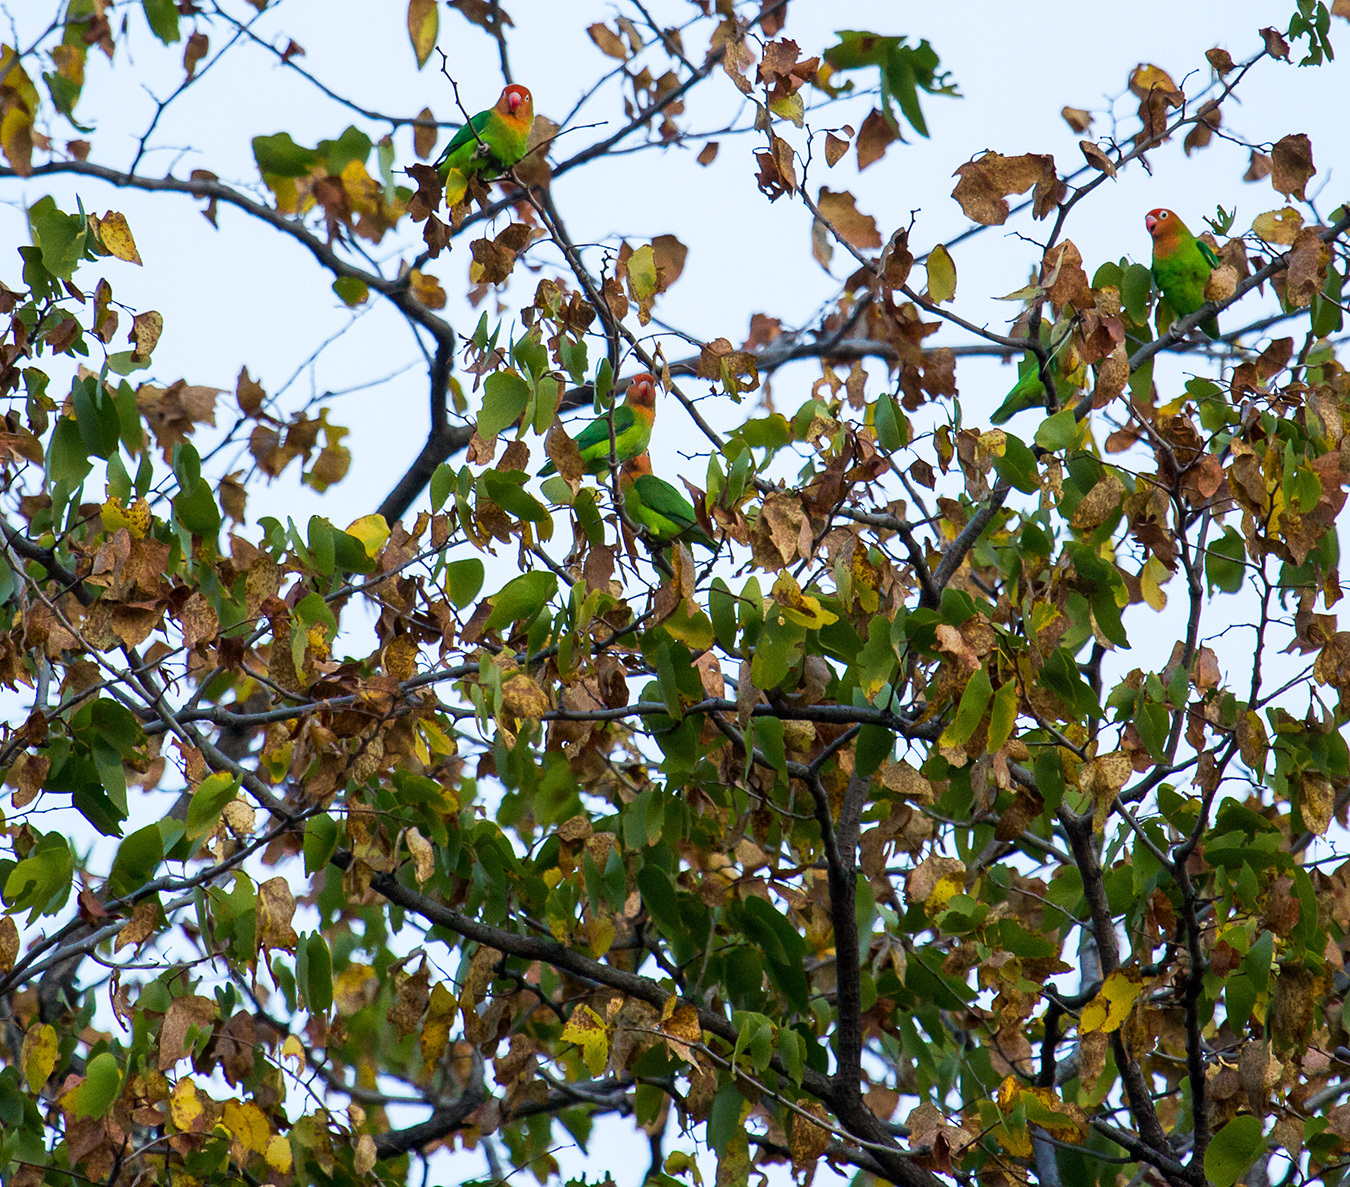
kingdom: Animalia
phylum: Chordata
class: Aves
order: Psittaciformes
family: Psittacidae
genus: Agapornis
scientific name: Agapornis lilianae
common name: Lilian's lovebird
